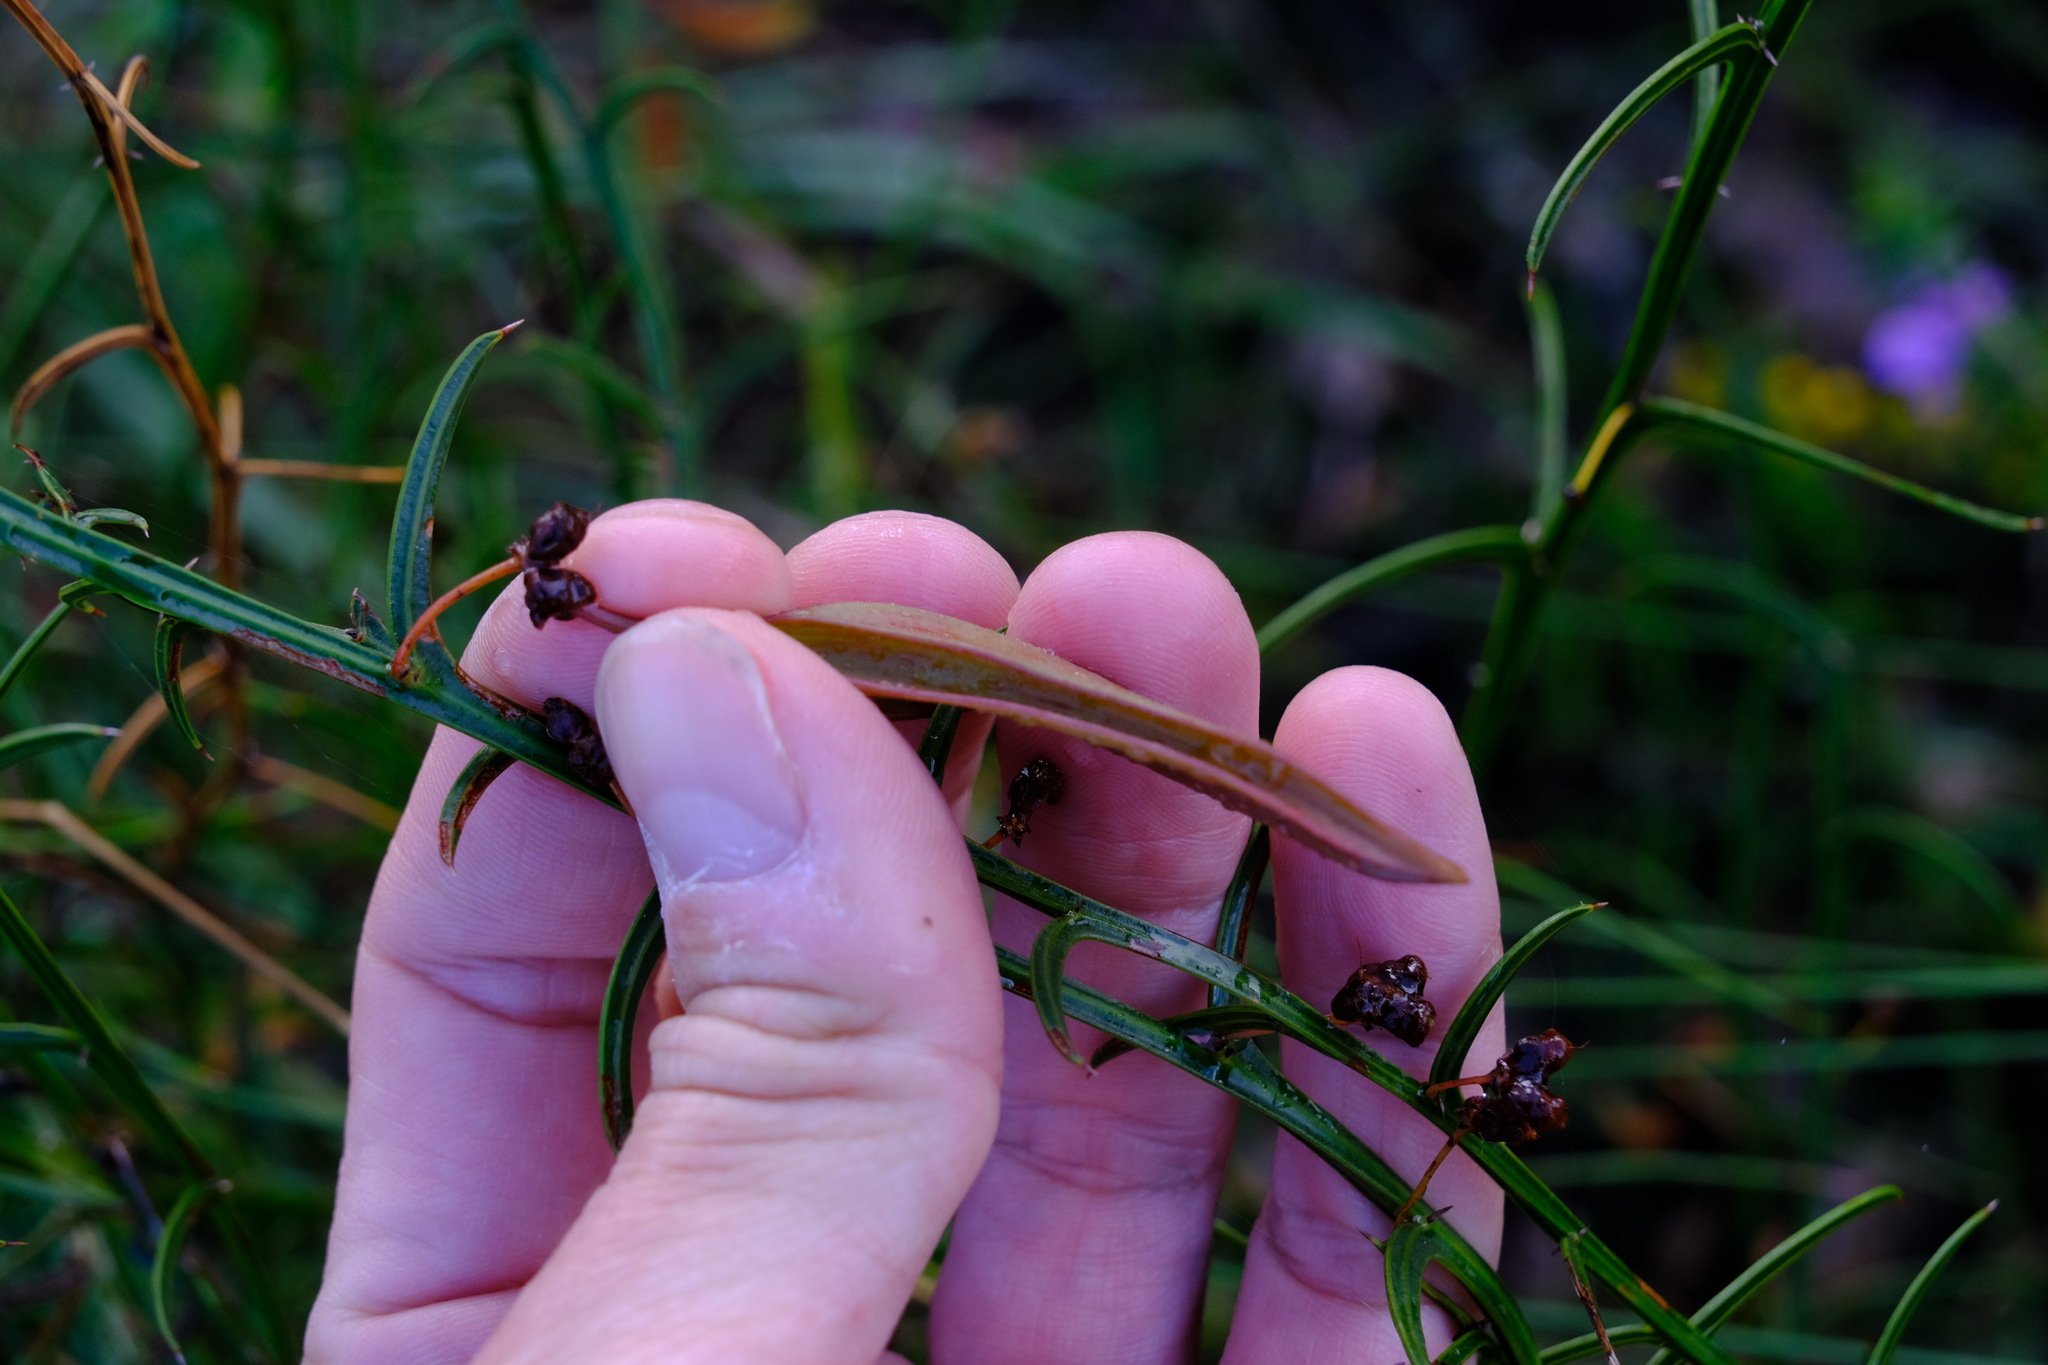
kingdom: Plantae
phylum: Tracheophyta
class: Magnoliopsida
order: Fabales
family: Fabaceae
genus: Acacia
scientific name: Acacia stenoptera
